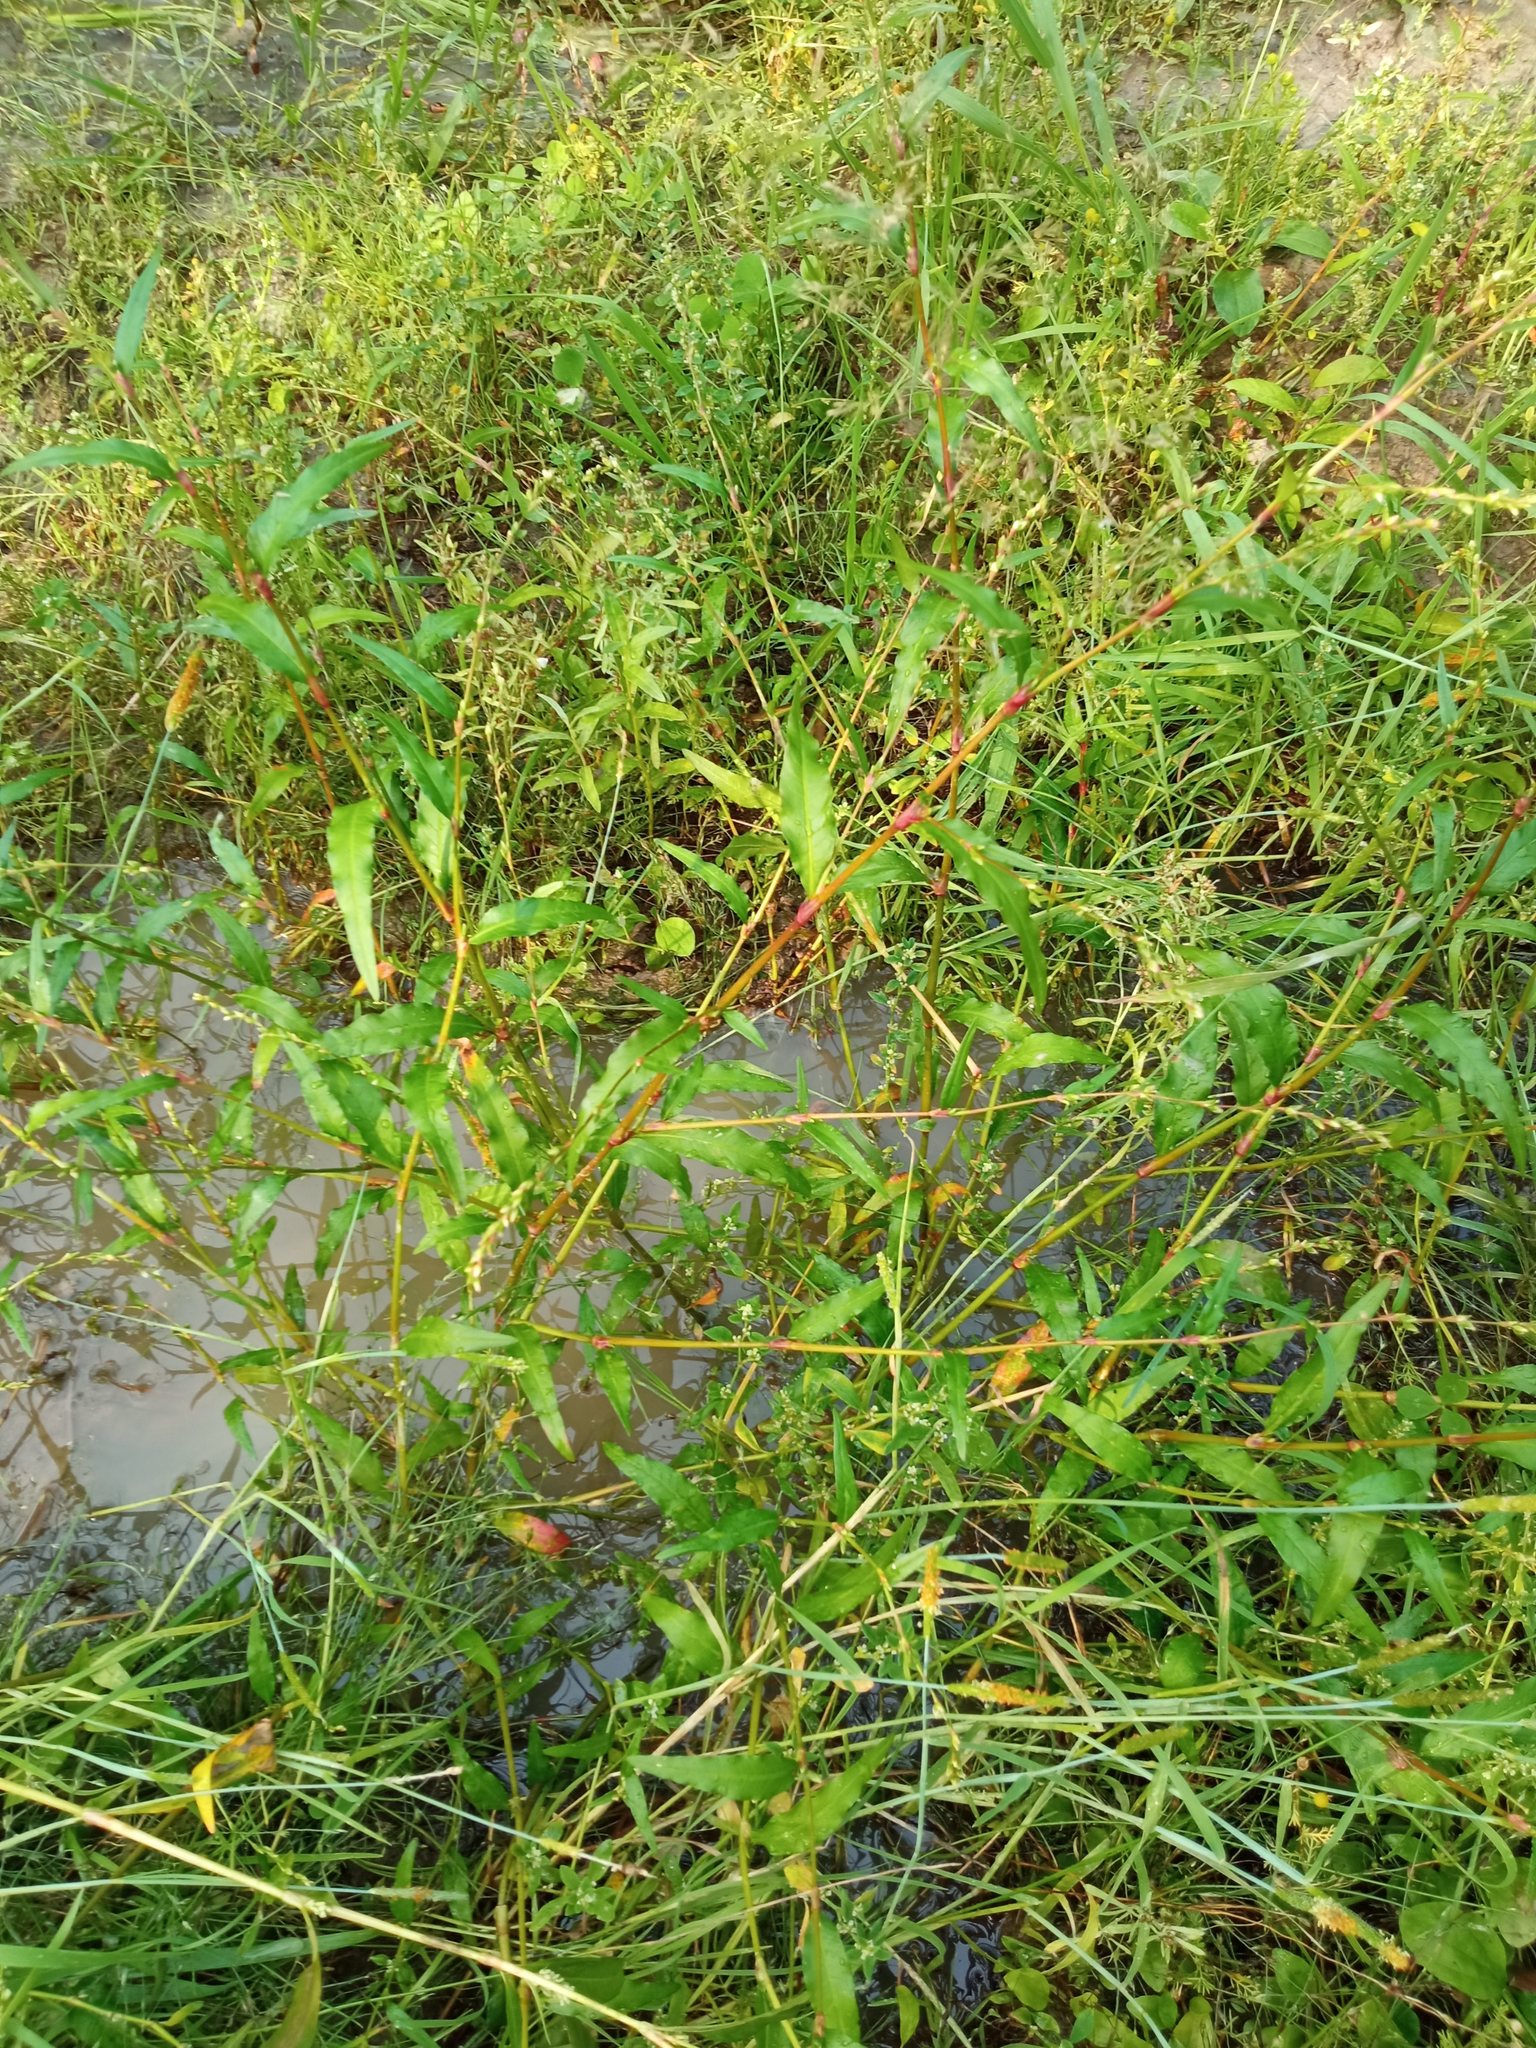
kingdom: Plantae
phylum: Tracheophyta
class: Magnoliopsida
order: Caryophyllales
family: Polygonaceae
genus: Persicaria
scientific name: Persicaria hydropiper
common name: Water-pepper
